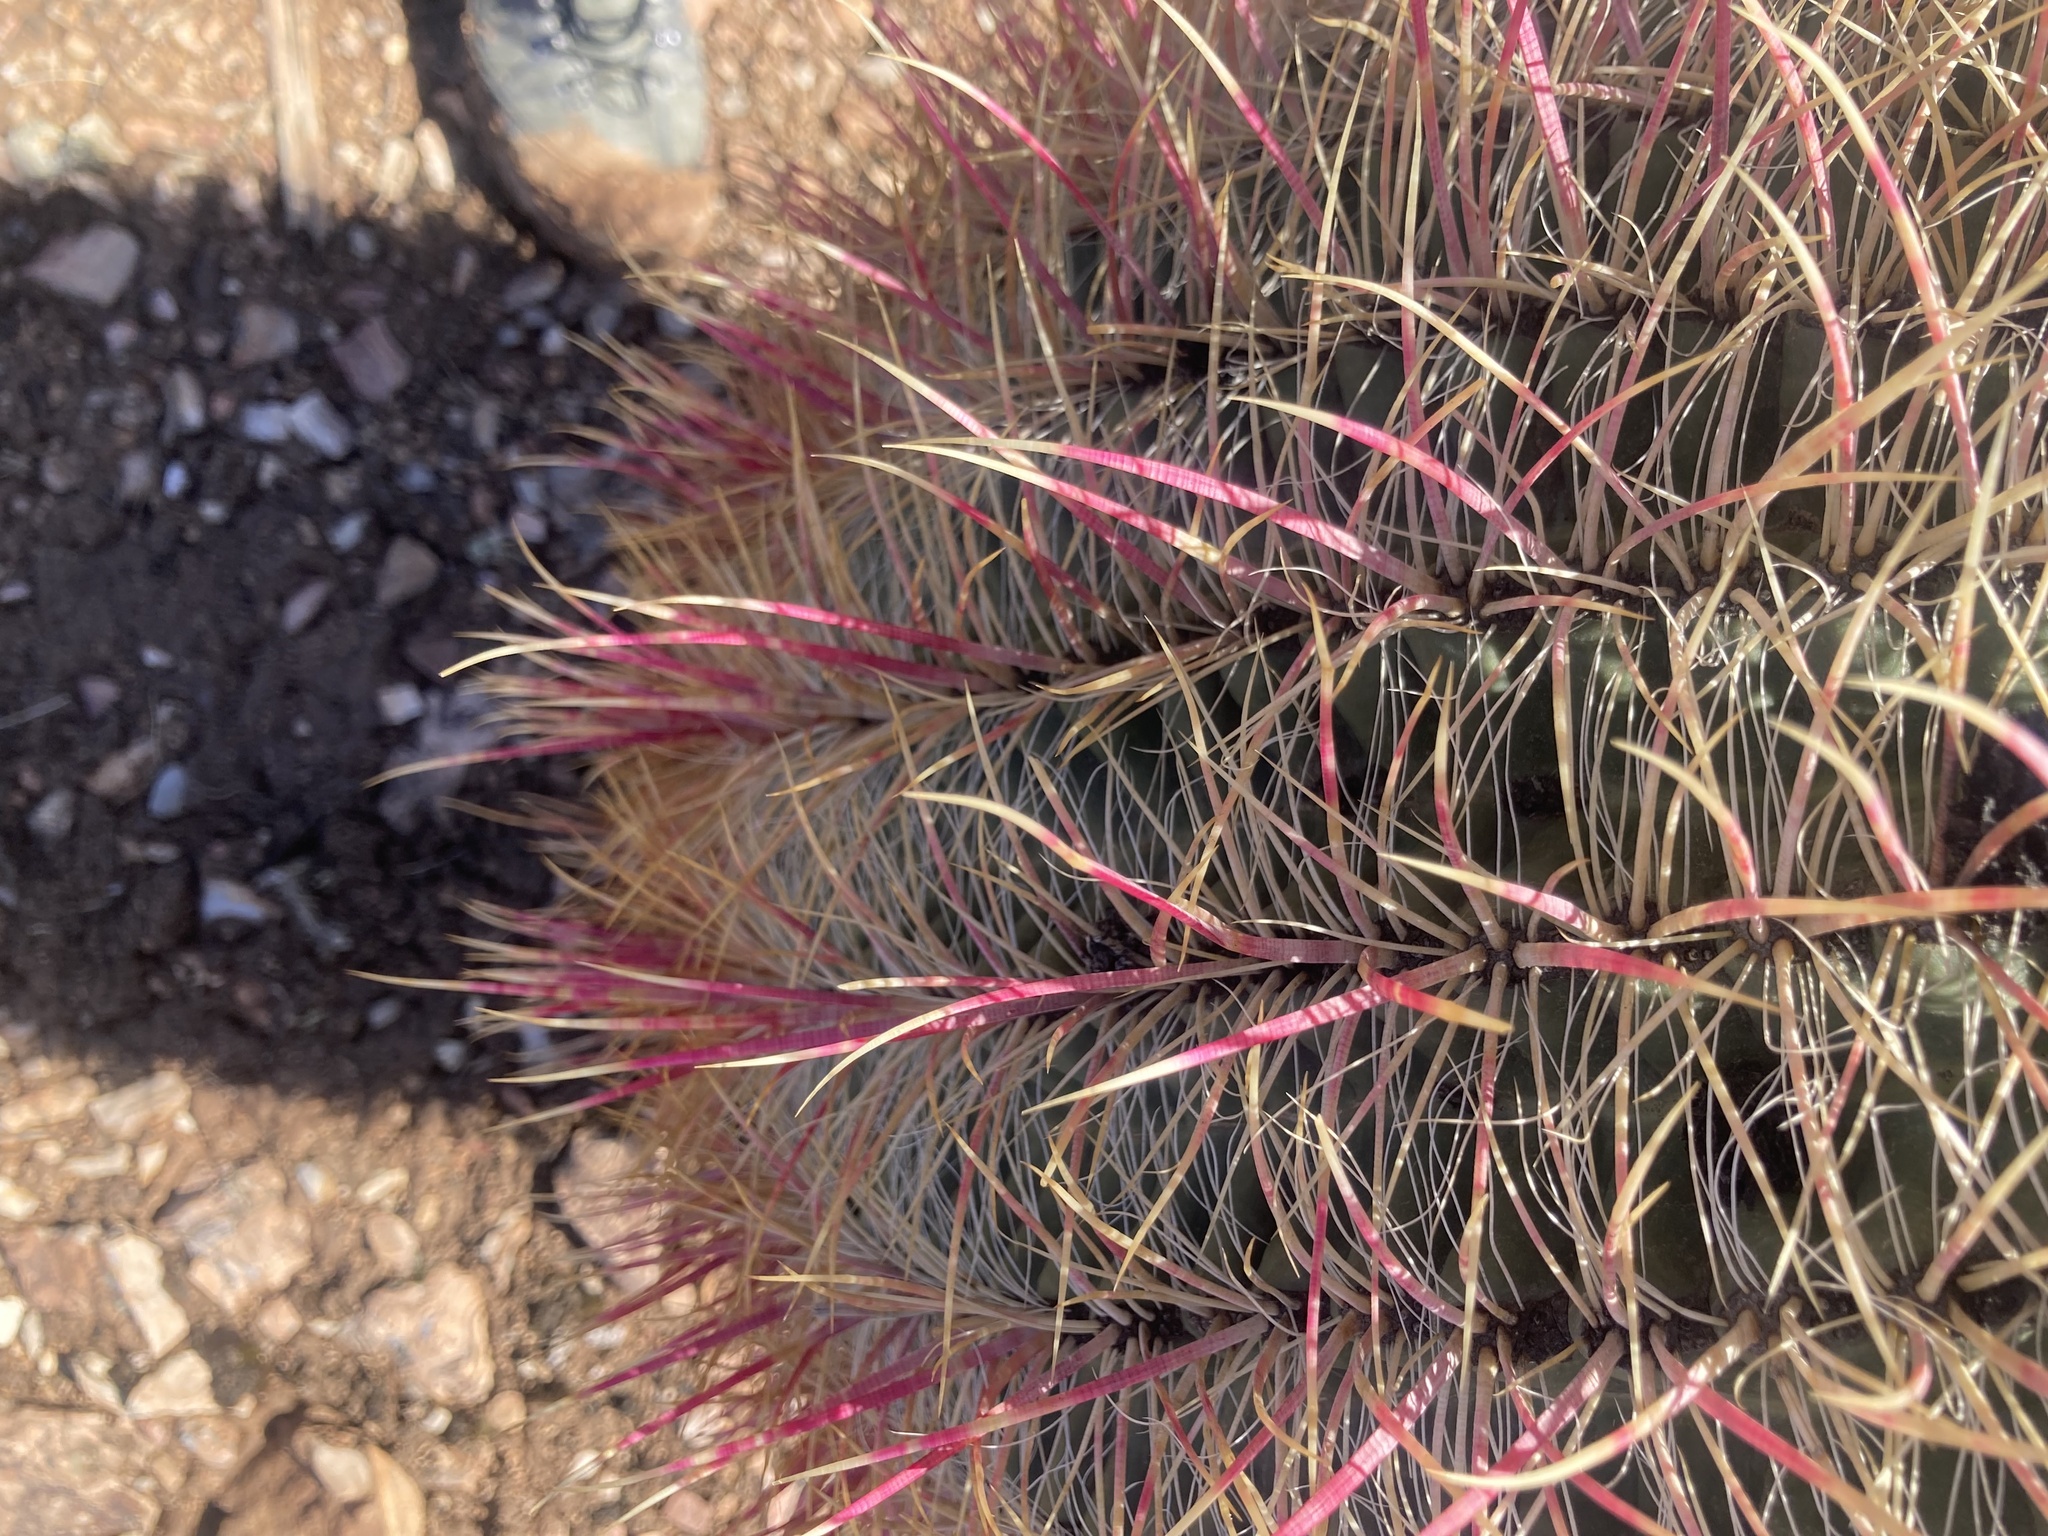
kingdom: Plantae
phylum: Tracheophyta
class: Magnoliopsida
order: Caryophyllales
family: Cactaceae
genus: Ferocactus
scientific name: Ferocactus cylindraceus
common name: California barrel cactus
